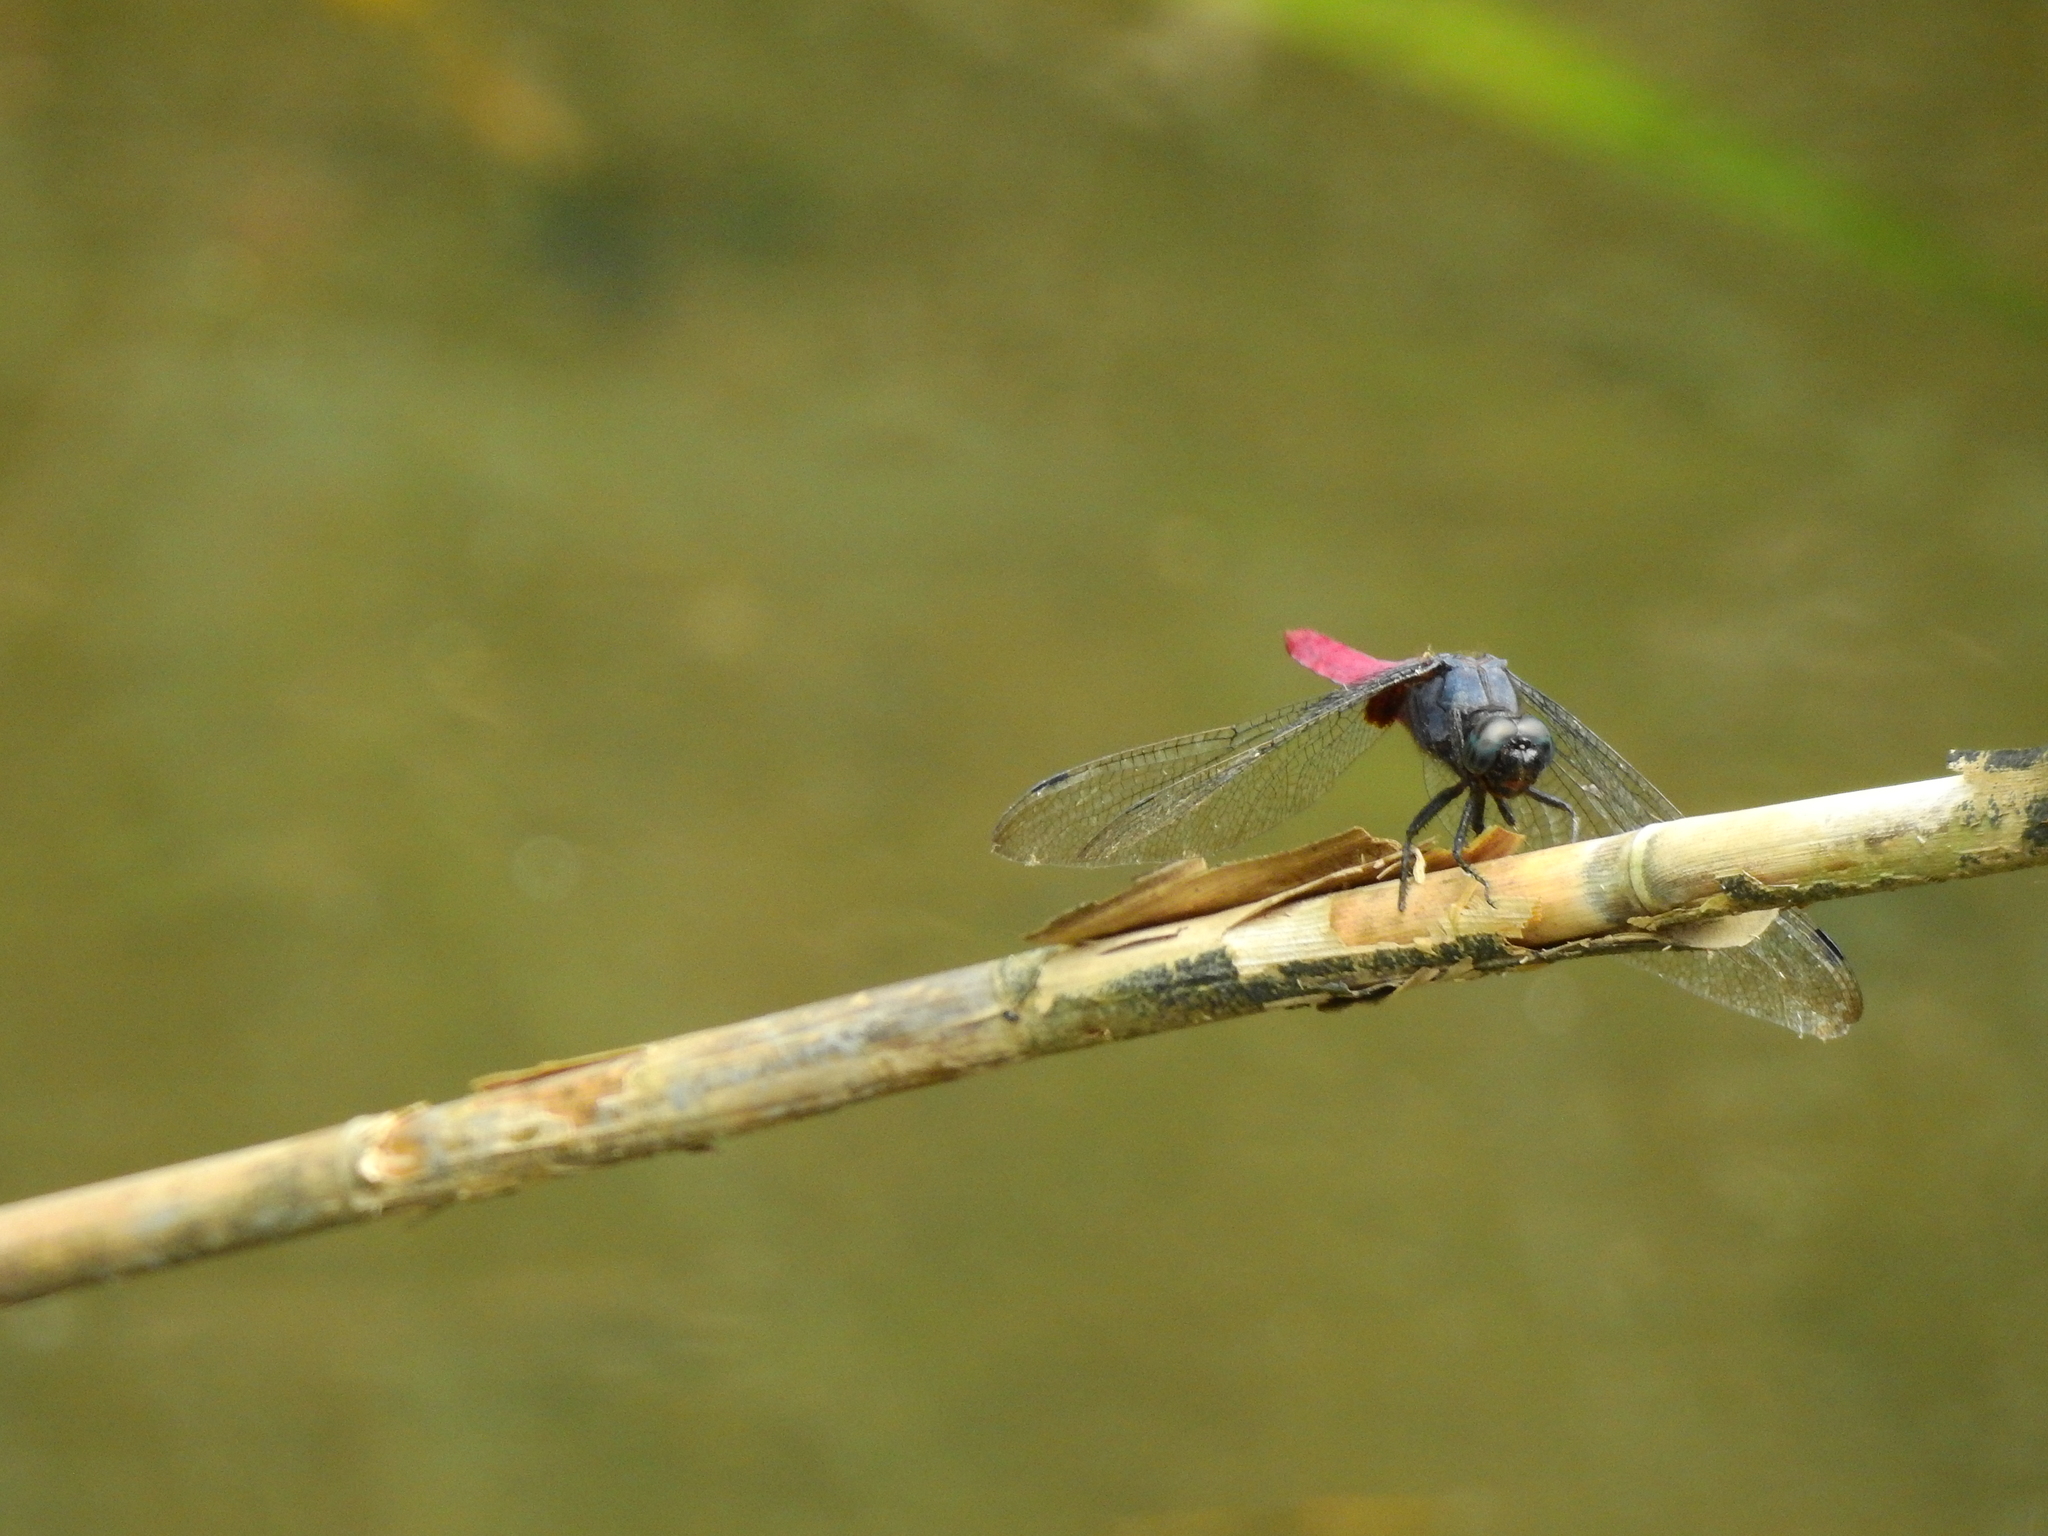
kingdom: Animalia
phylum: Arthropoda
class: Insecta
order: Odonata
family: Libellulidae
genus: Orthetrum
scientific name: Orthetrum pruinosum
